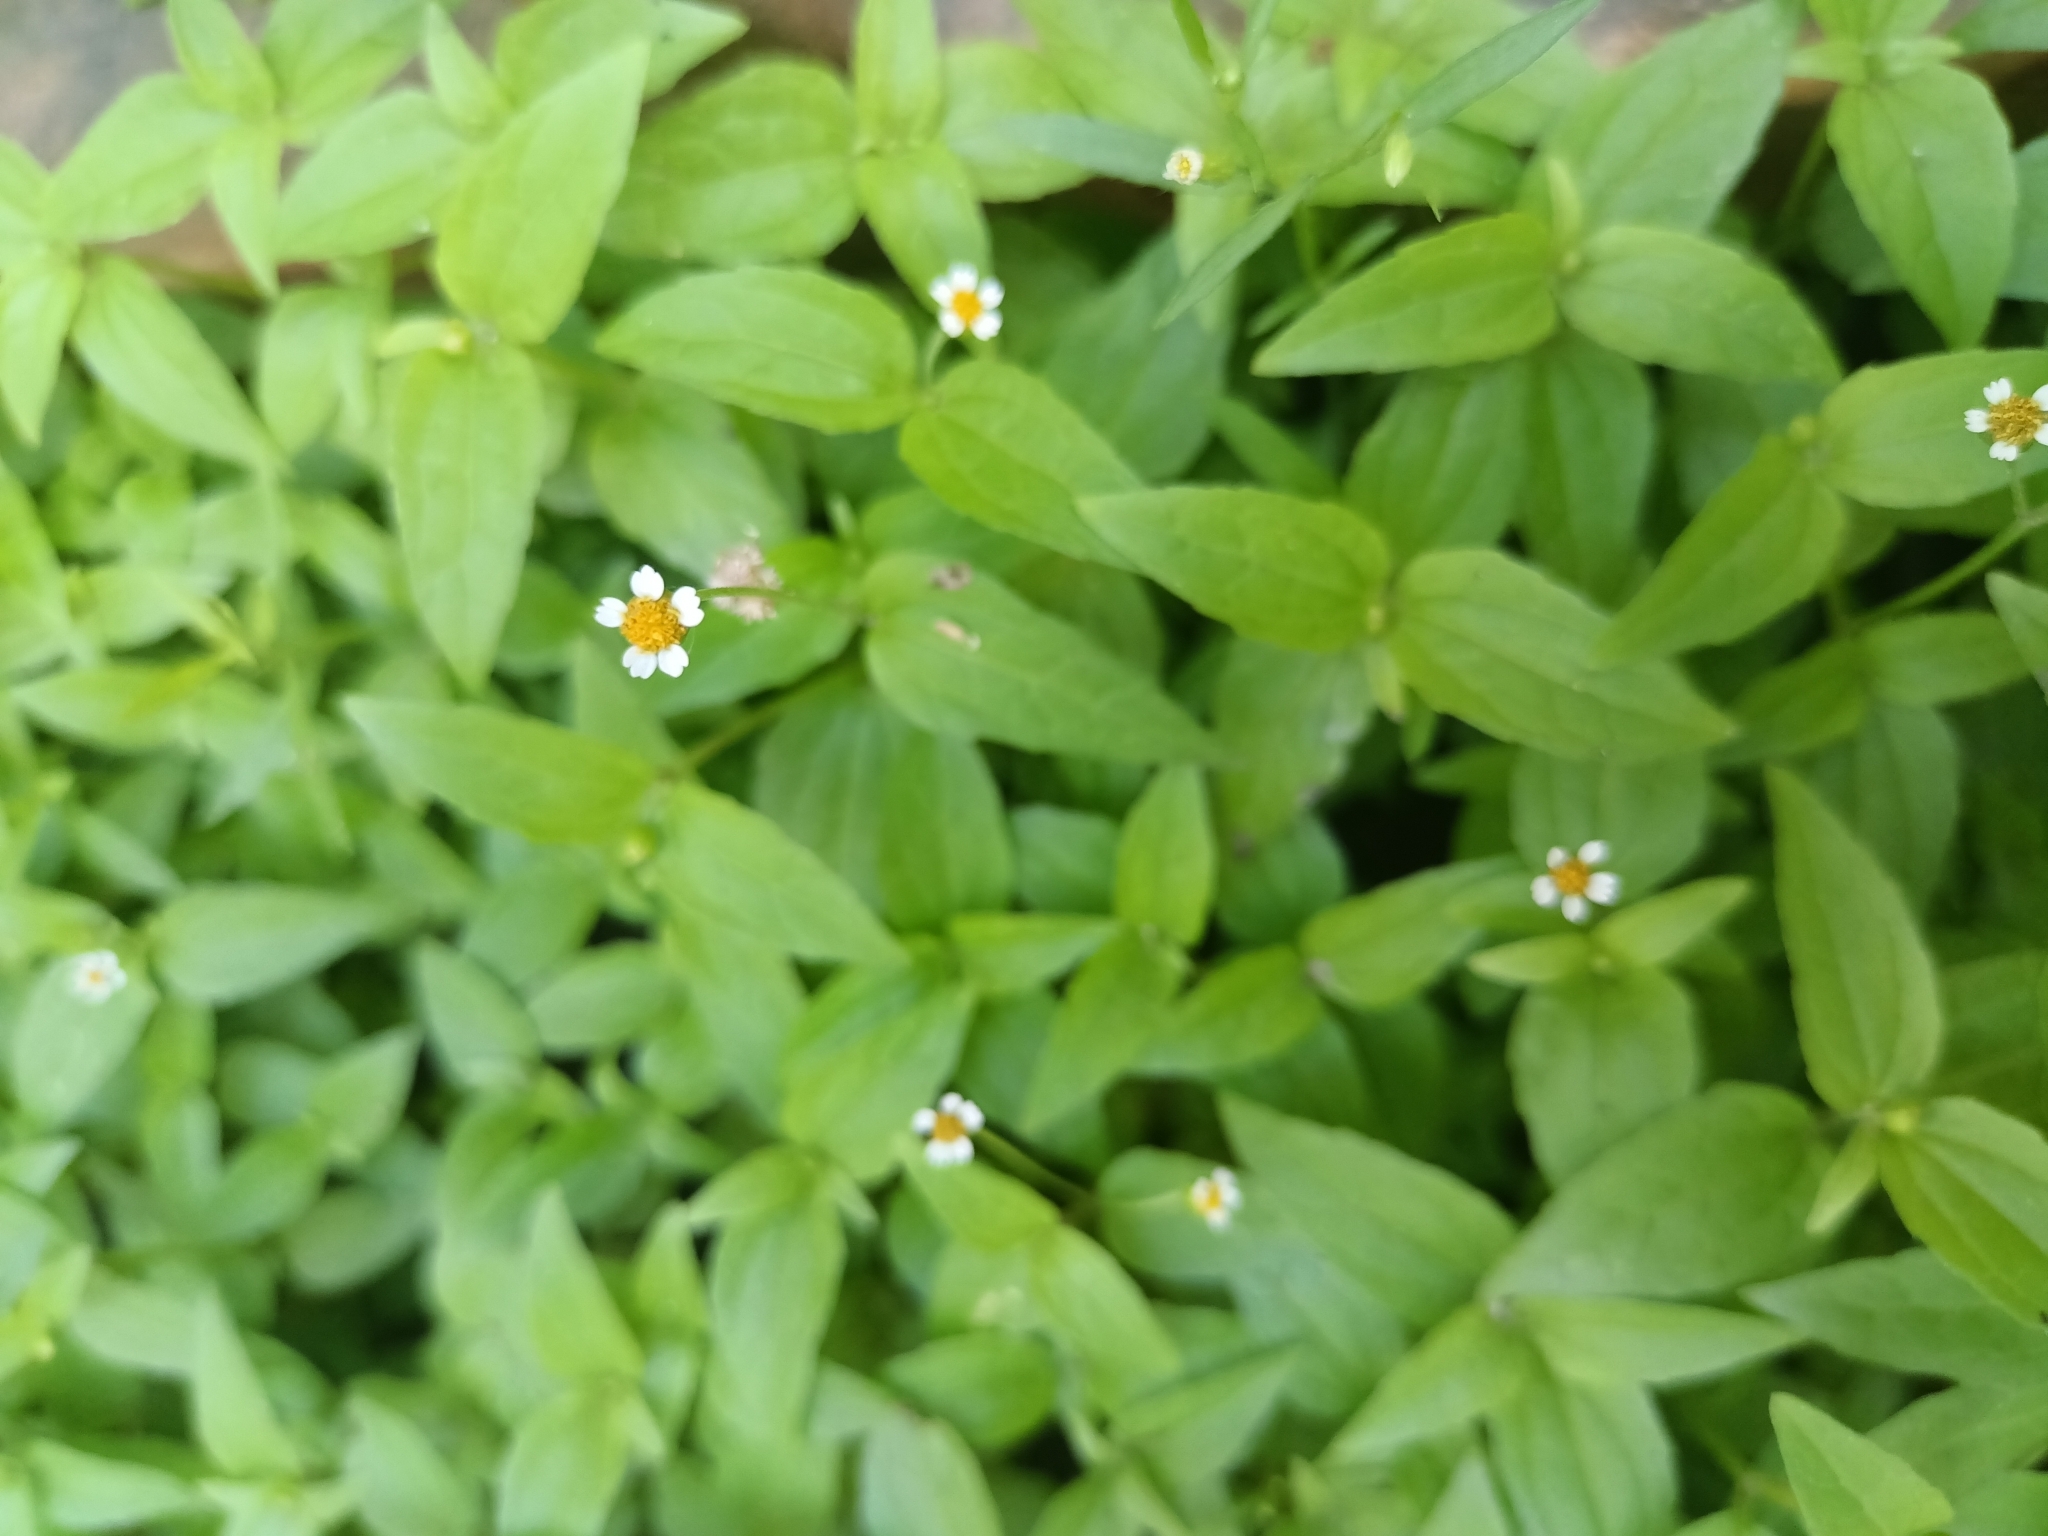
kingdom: Plantae
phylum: Tracheophyta
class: Magnoliopsida
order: Asterales
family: Asteraceae
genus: Galinsoga
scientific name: Galinsoga parviflora
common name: Gallant soldier
